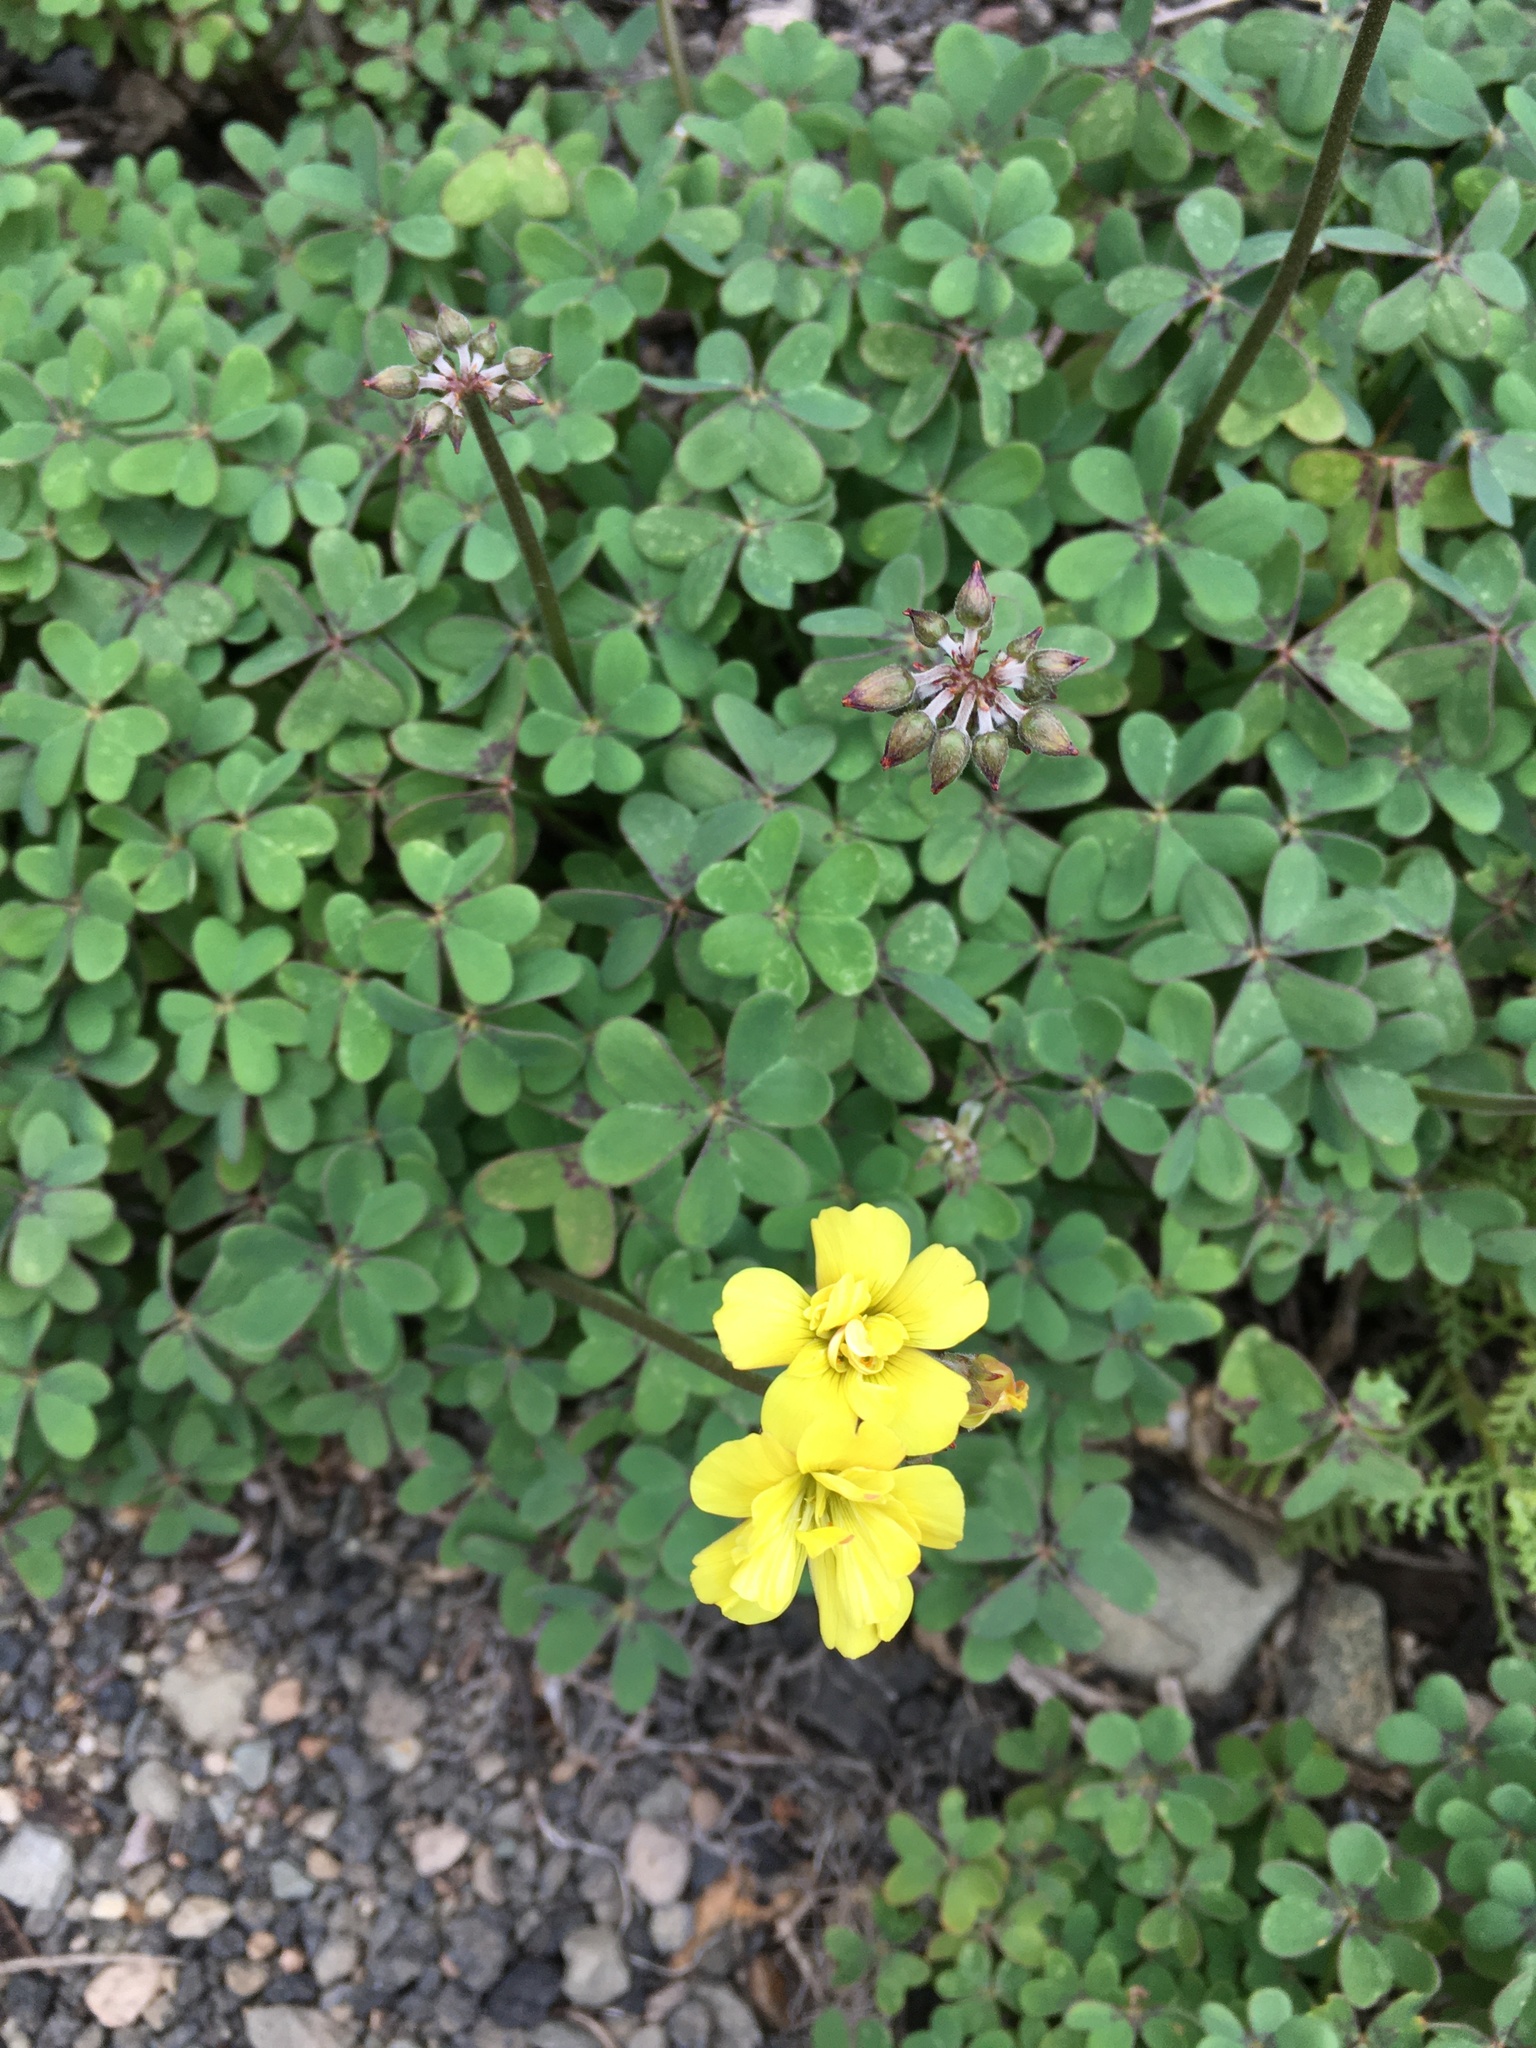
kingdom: Plantae
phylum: Tracheophyta
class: Magnoliopsida
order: Oxalidales
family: Oxalidaceae
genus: Oxalis
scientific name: Oxalis pes-caprae
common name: Bermuda-buttercup
